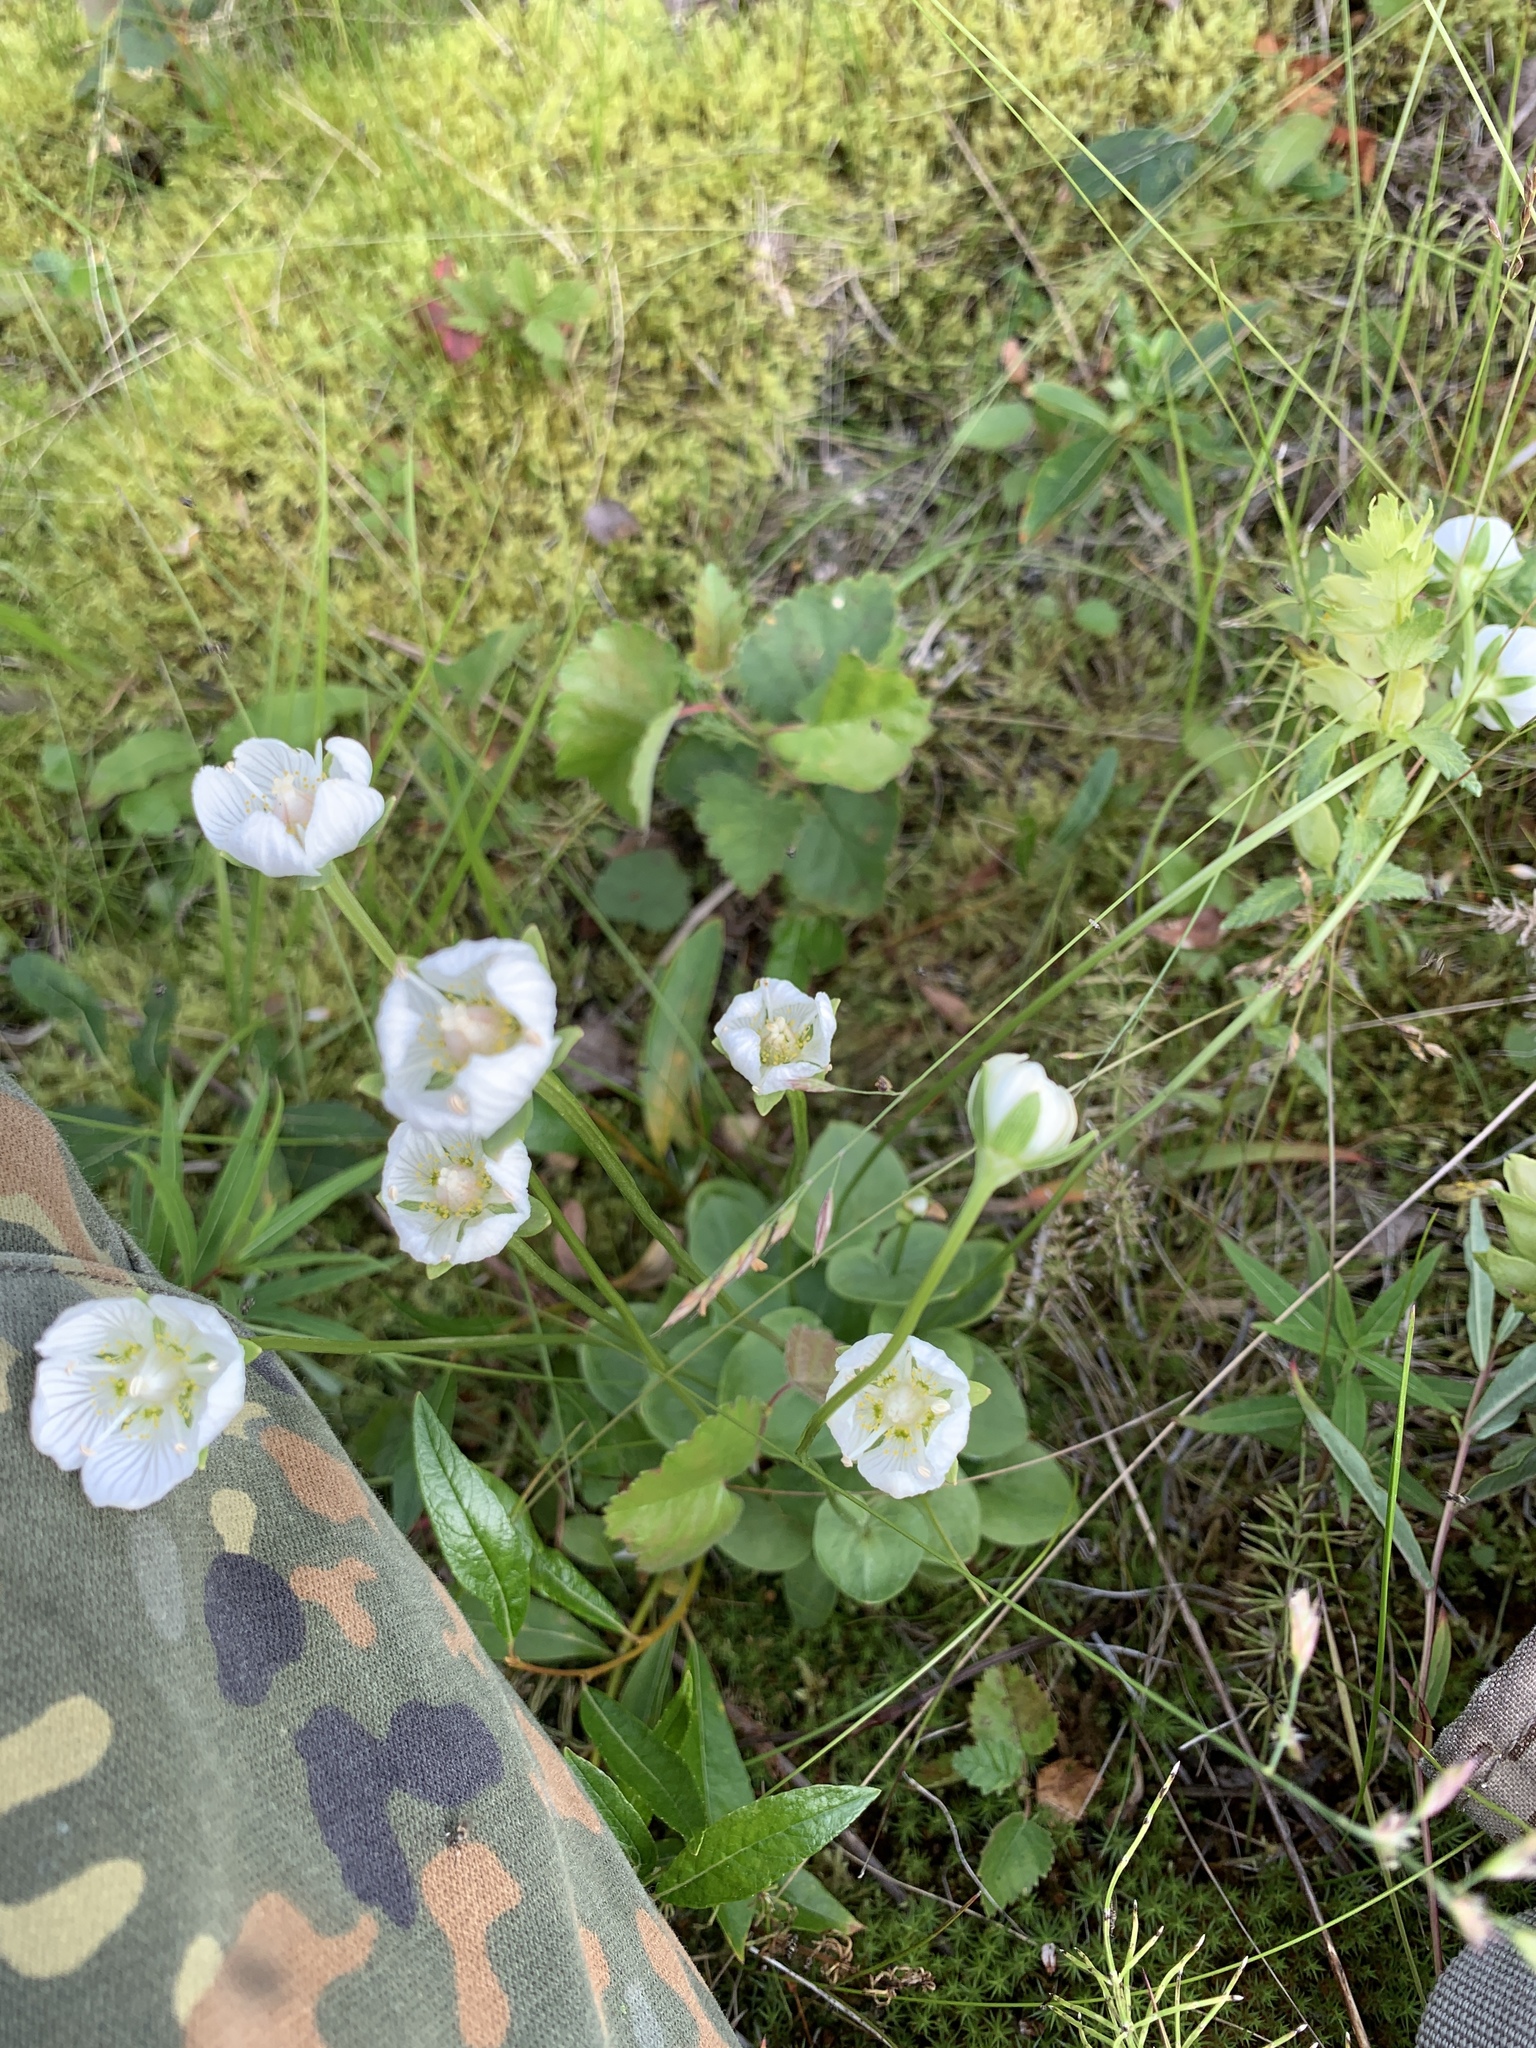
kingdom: Plantae
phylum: Tracheophyta
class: Magnoliopsida
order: Celastrales
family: Parnassiaceae
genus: Parnassia
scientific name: Parnassia palustris
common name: Grass-of-parnassus
